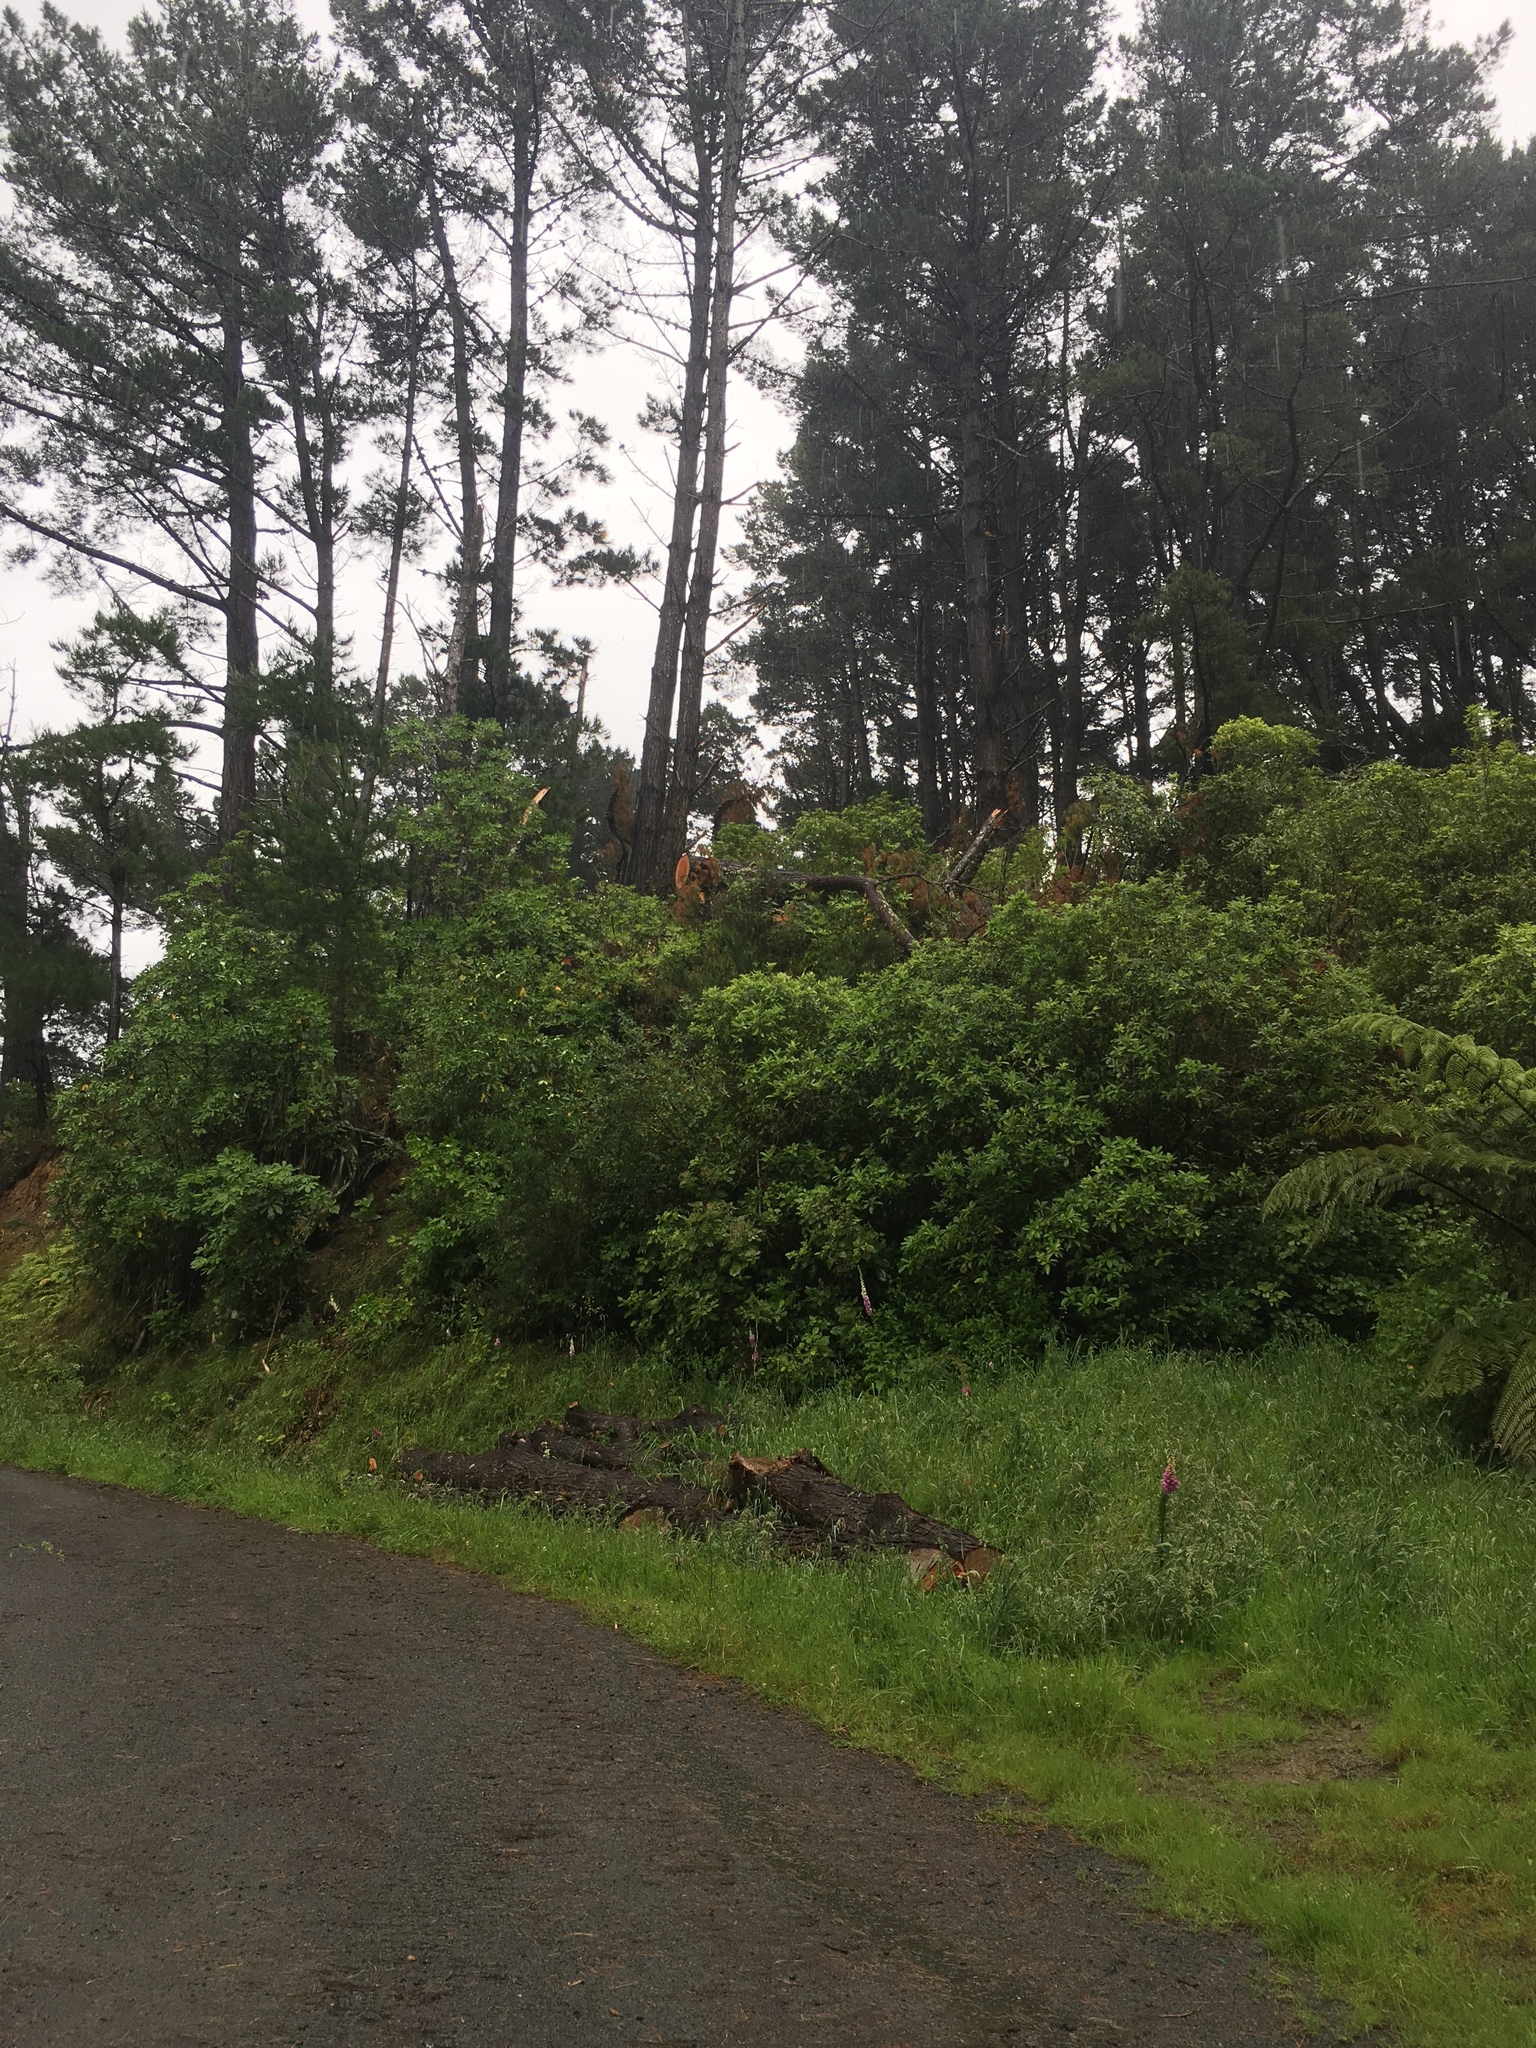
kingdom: Plantae
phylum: Tracheophyta
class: Magnoliopsida
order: Malpighiales
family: Violaceae
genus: Melicytus
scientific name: Melicytus ramiflorus
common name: Mahoe
